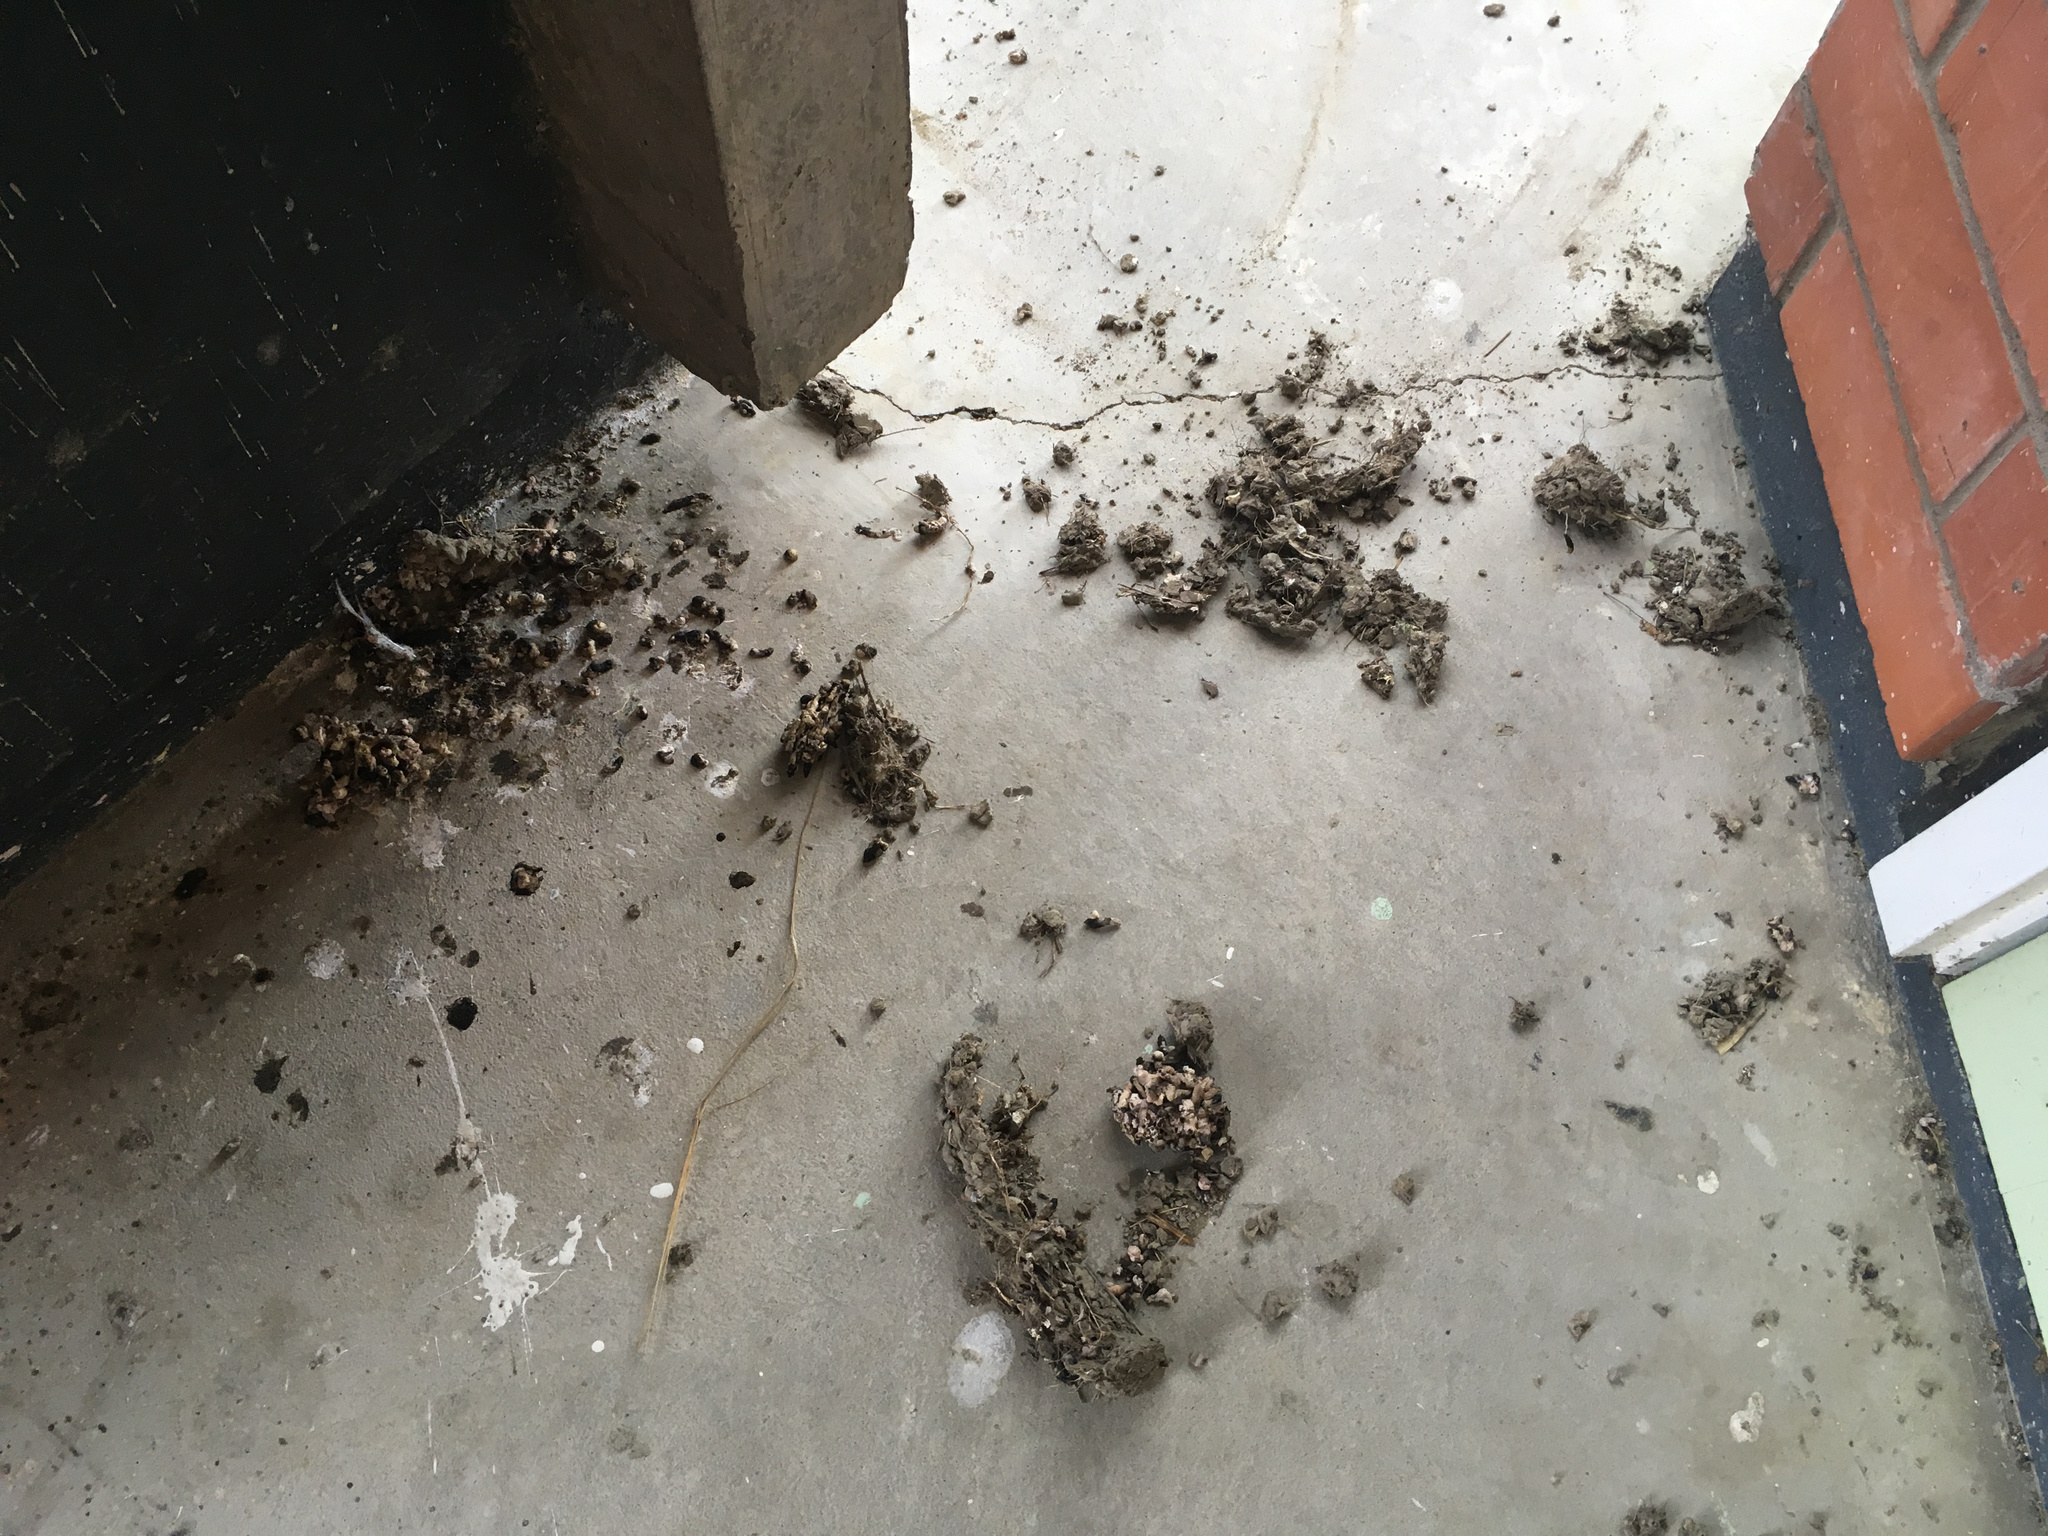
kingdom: Animalia
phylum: Chordata
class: Aves
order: Passeriformes
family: Hirundinidae
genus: Hirundo
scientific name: Hirundo neoxena
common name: Welcome swallow
